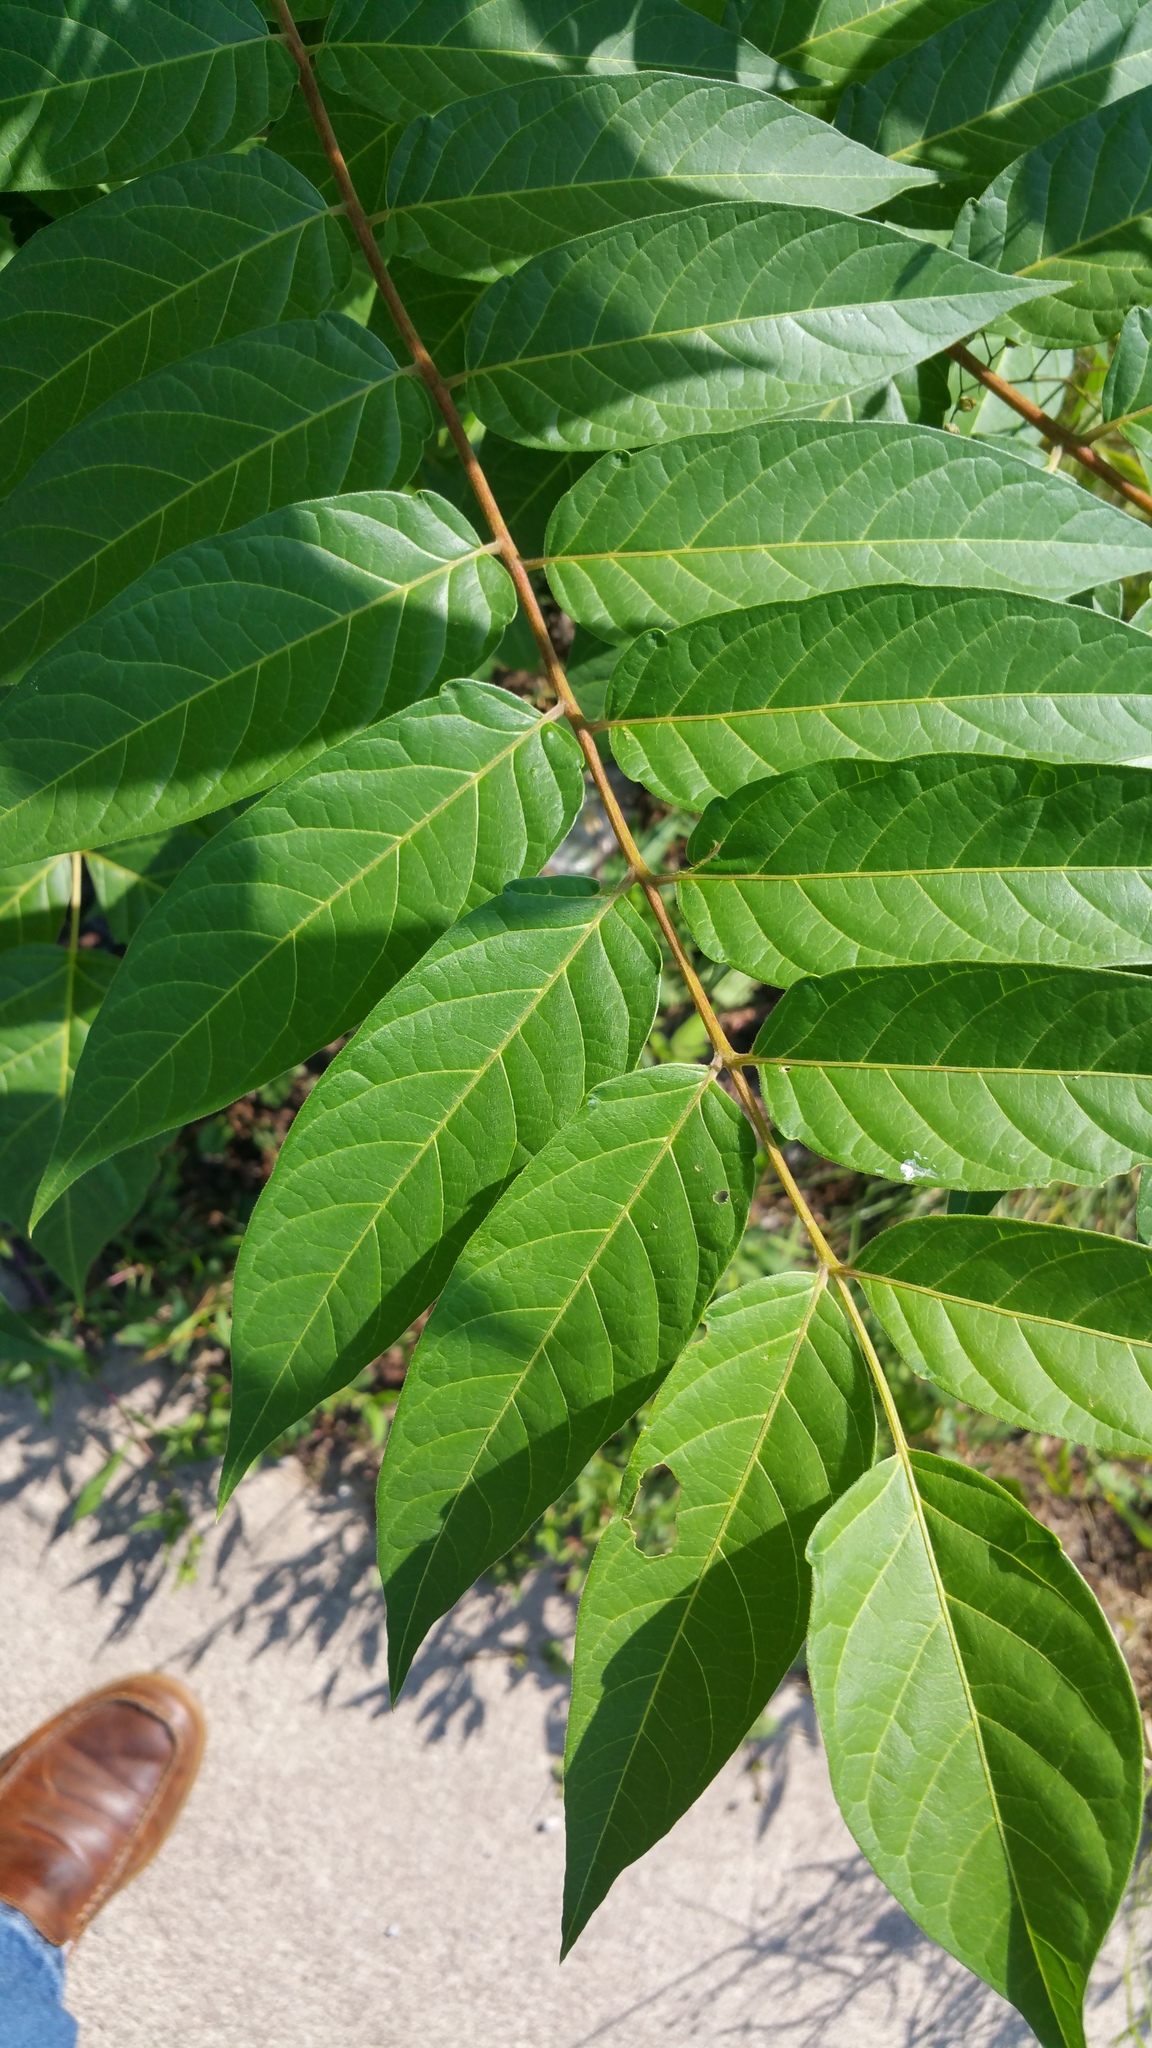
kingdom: Plantae
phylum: Tracheophyta
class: Magnoliopsida
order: Sapindales
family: Simaroubaceae
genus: Ailanthus
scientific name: Ailanthus altissima
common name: Tree-of-heaven
